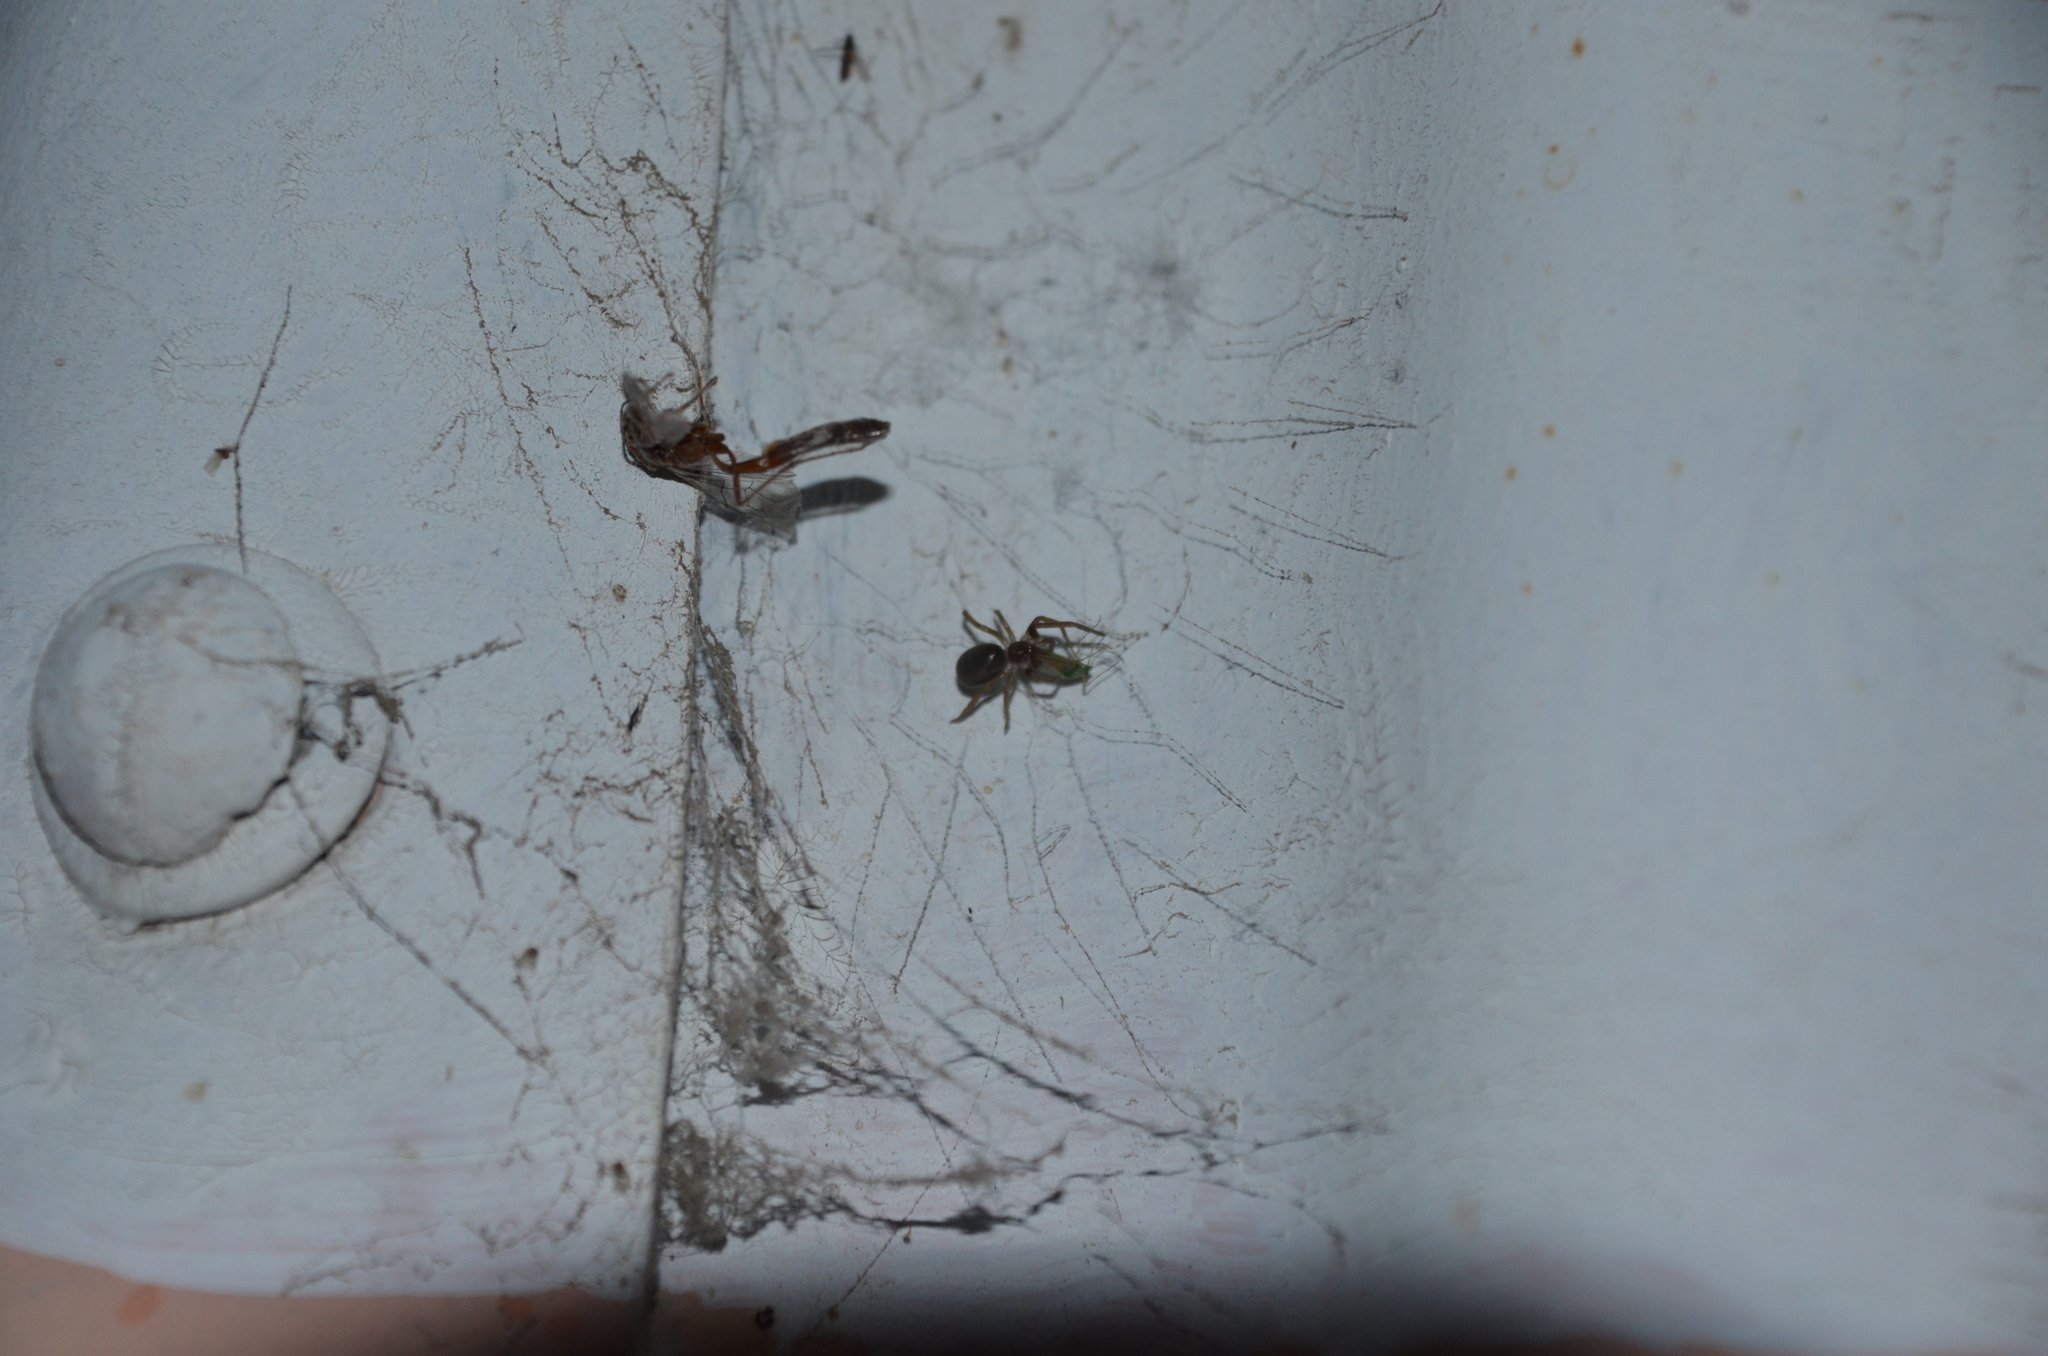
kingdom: Animalia
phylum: Arthropoda
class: Arachnida
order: Araneae
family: Filistatidae
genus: Kukulcania
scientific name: Kukulcania hibernalis
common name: Crevice weaver
